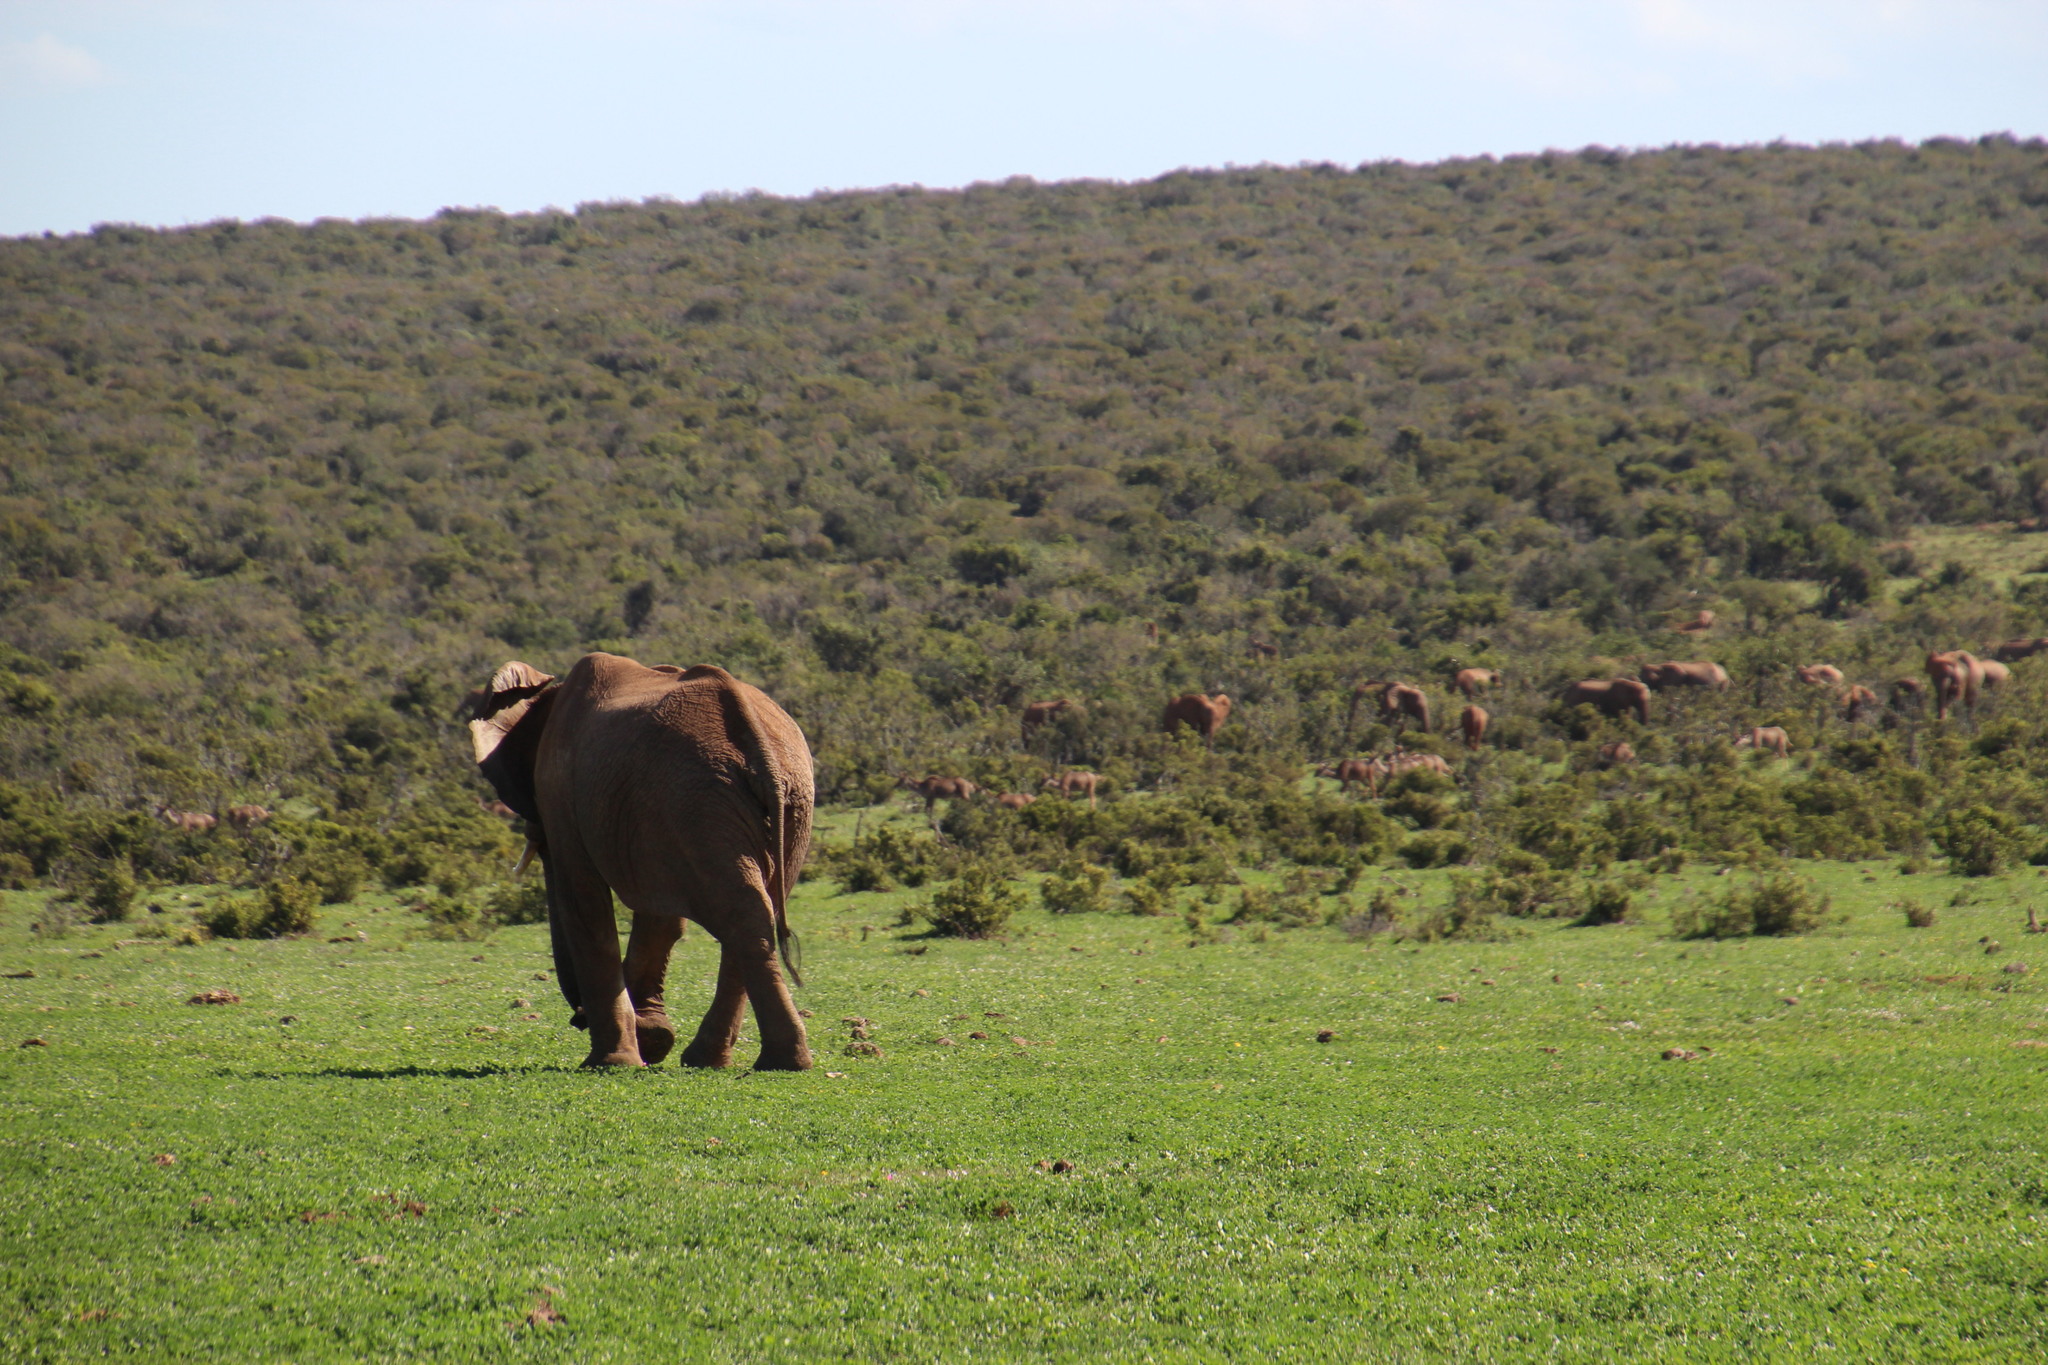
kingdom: Animalia
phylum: Chordata
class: Mammalia
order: Proboscidea
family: Elephantidae
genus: Loxodonta
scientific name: Loxodonta africana
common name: African elephant
